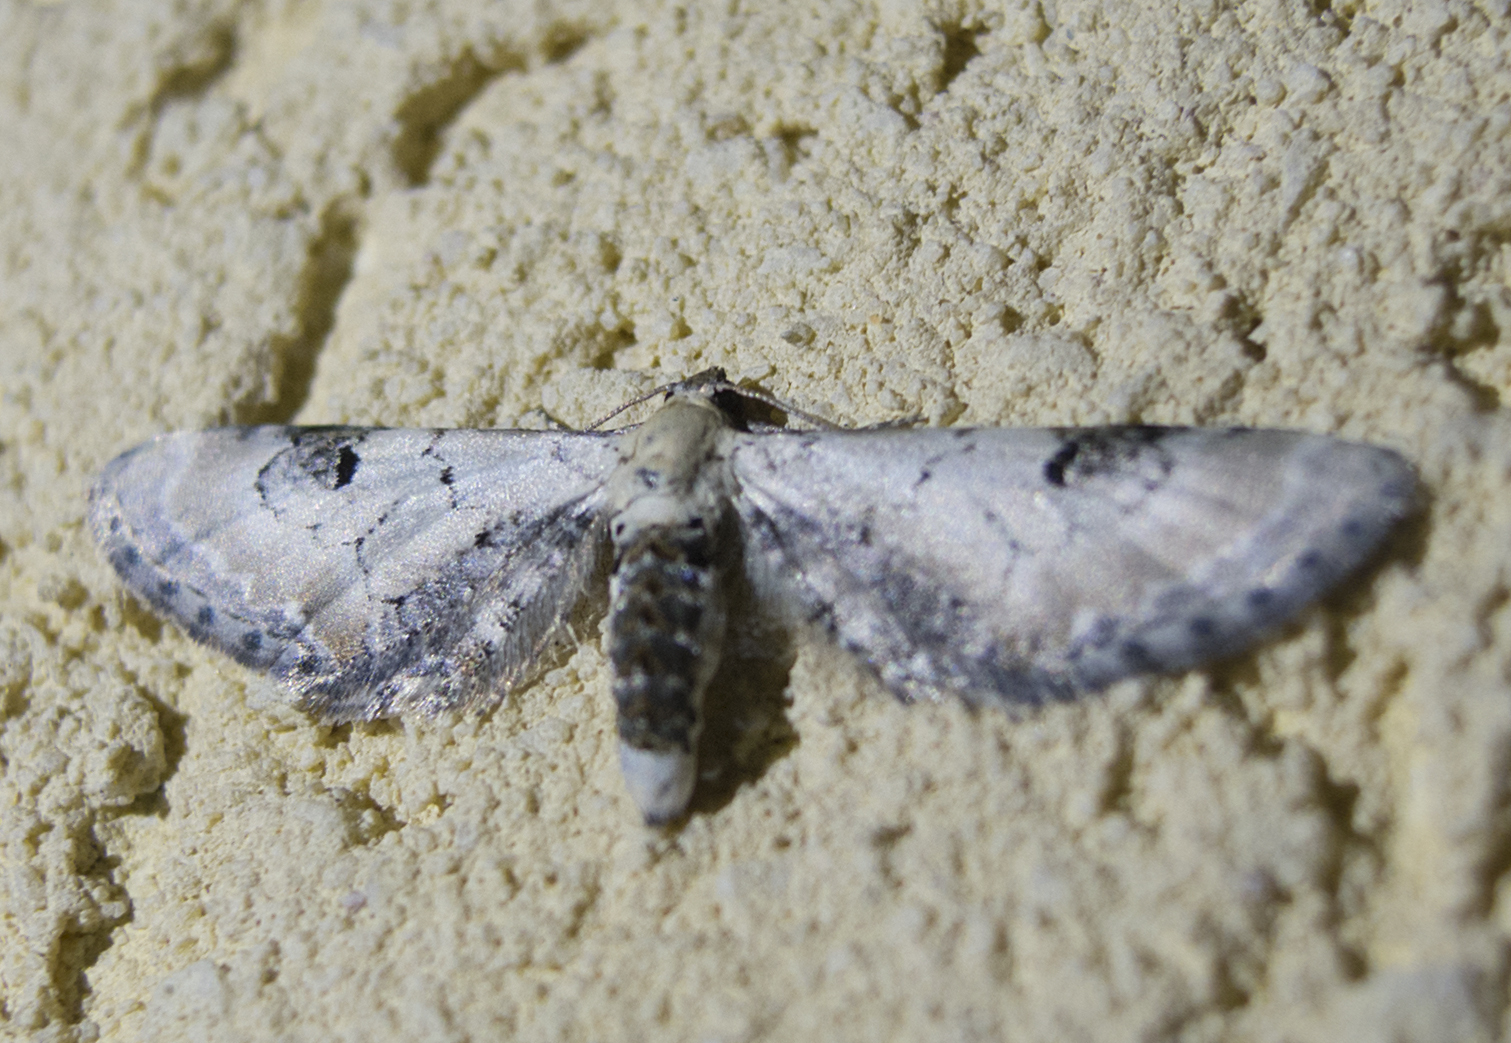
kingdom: Animalia
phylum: Arthropoda
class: Insecta
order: Lepidoptera
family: Geometridae
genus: Eupithecia
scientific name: Eupithecia centaureata
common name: Lime-speck pug
